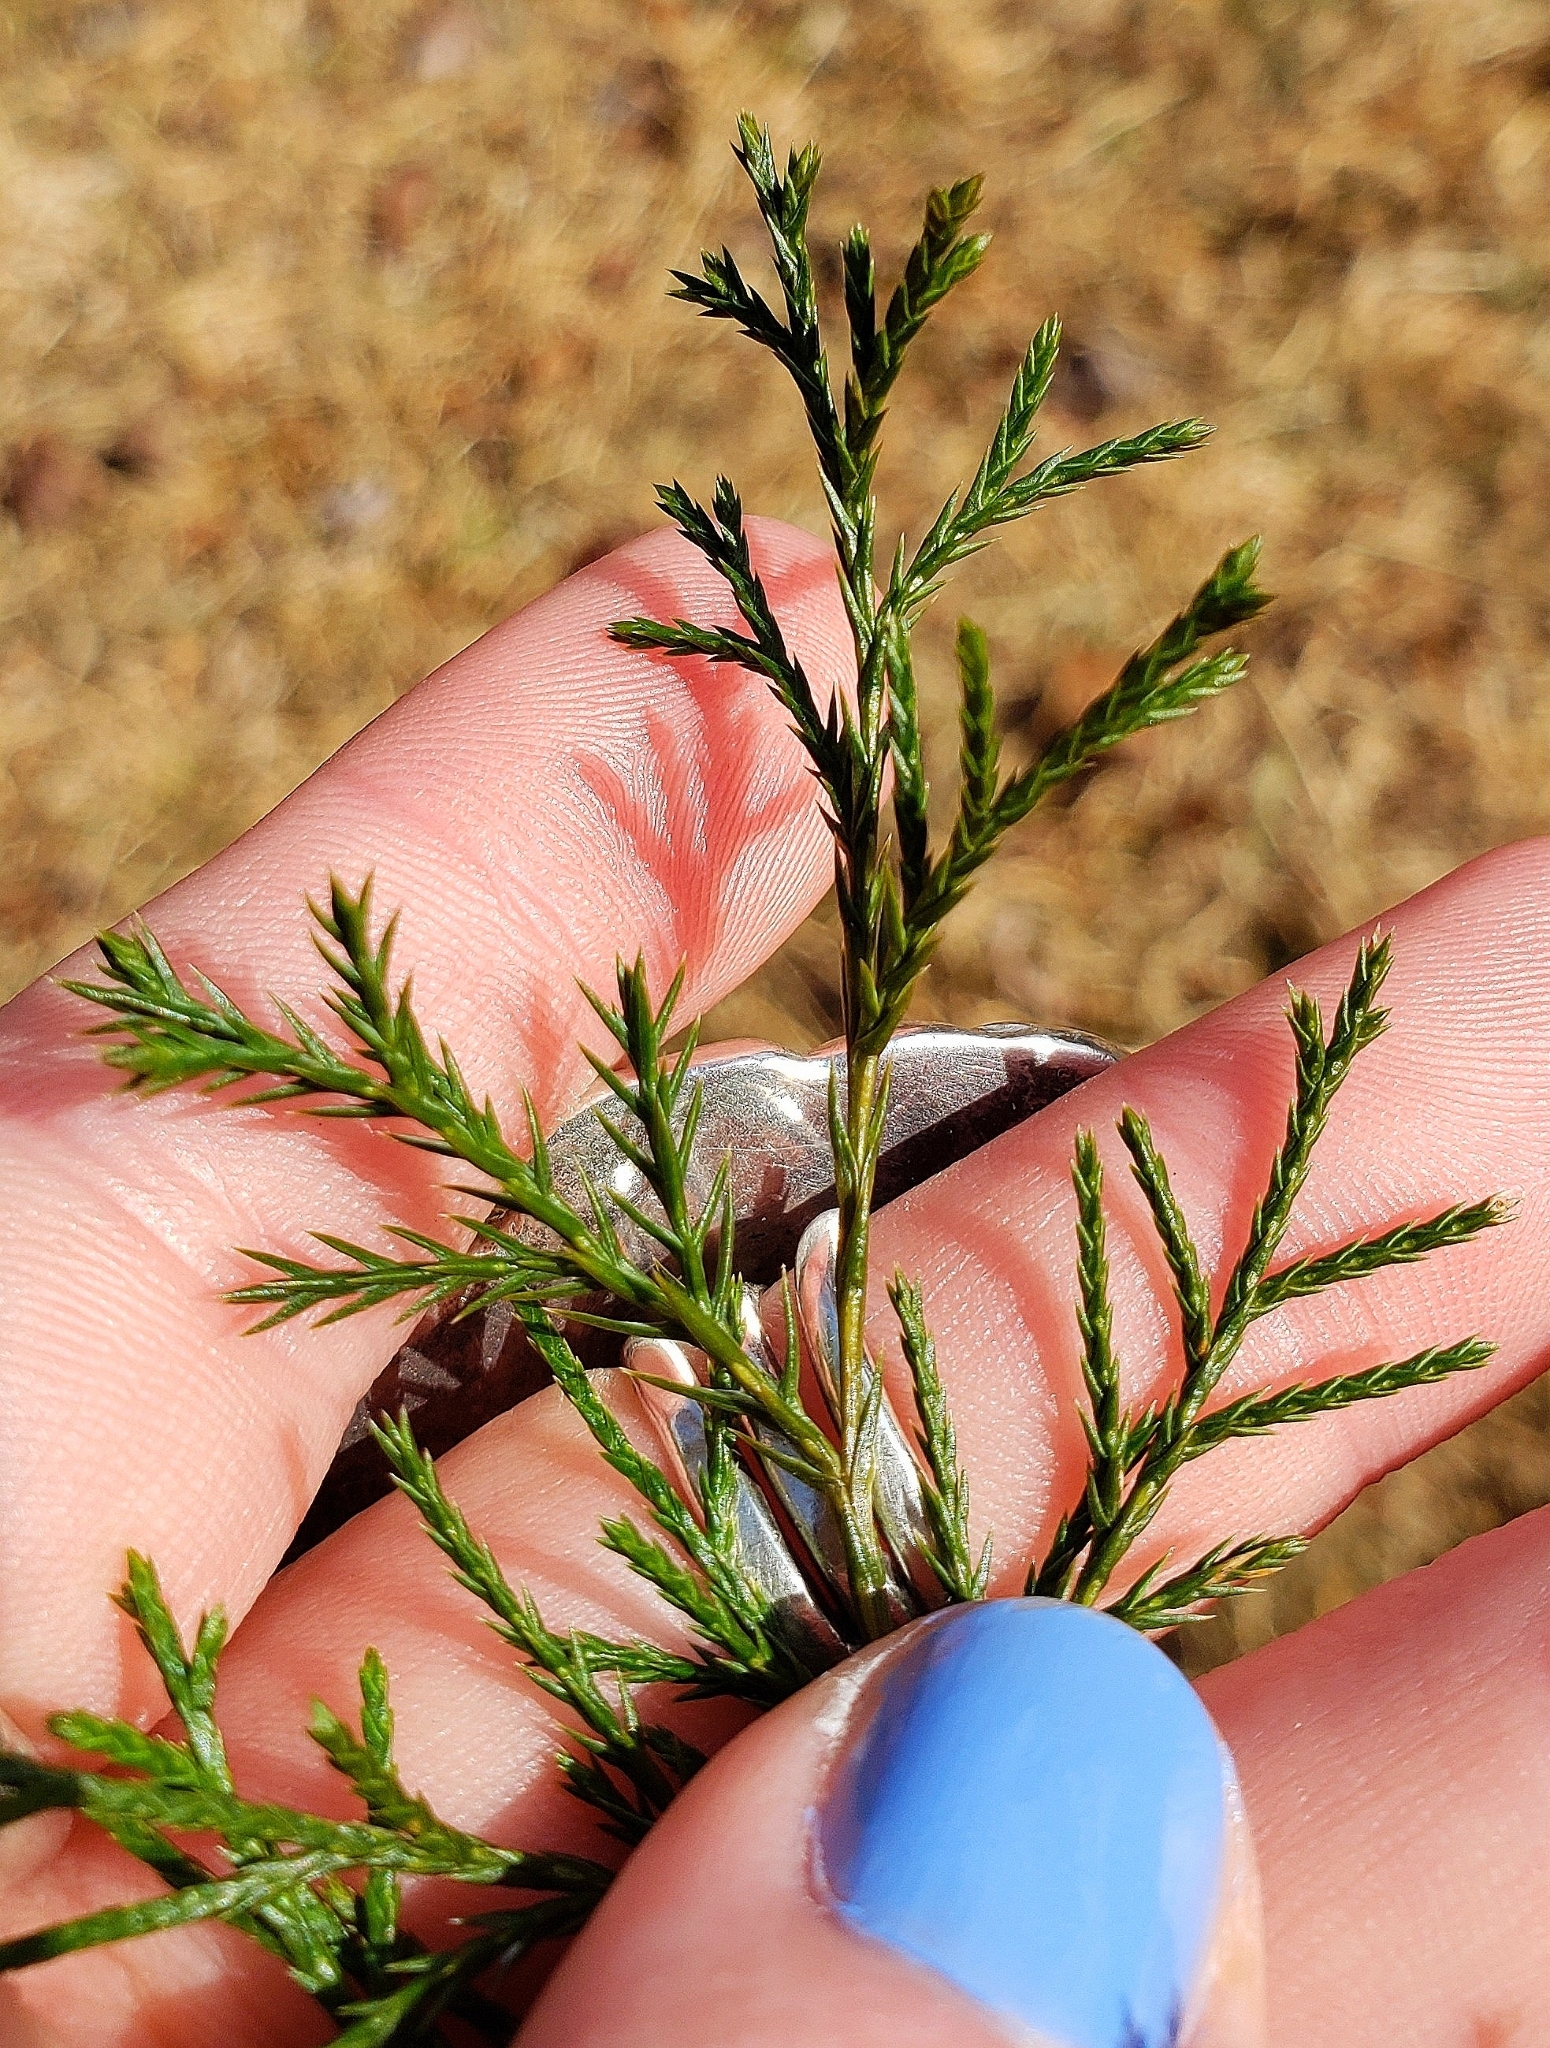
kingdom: Plantae
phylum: Tracheophyta
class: Pinopsida
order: Pinales
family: Cupressaceae
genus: Juniperus
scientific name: Juniperus virginiana
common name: Red juniper
